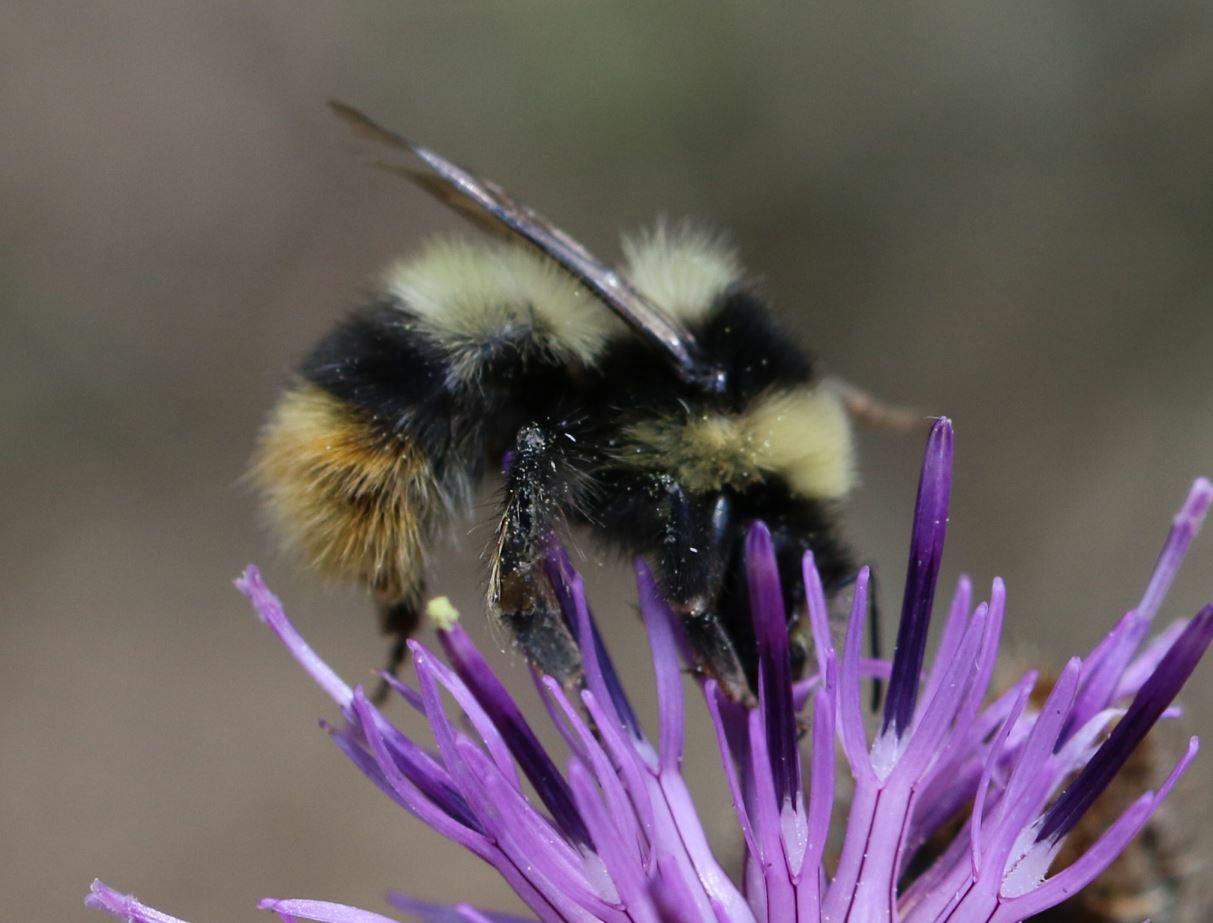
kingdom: Animalia
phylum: Arthropoda
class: Insecta
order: Hymenoptera
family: Apidae
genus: Bombus
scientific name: Bombus sichelii
